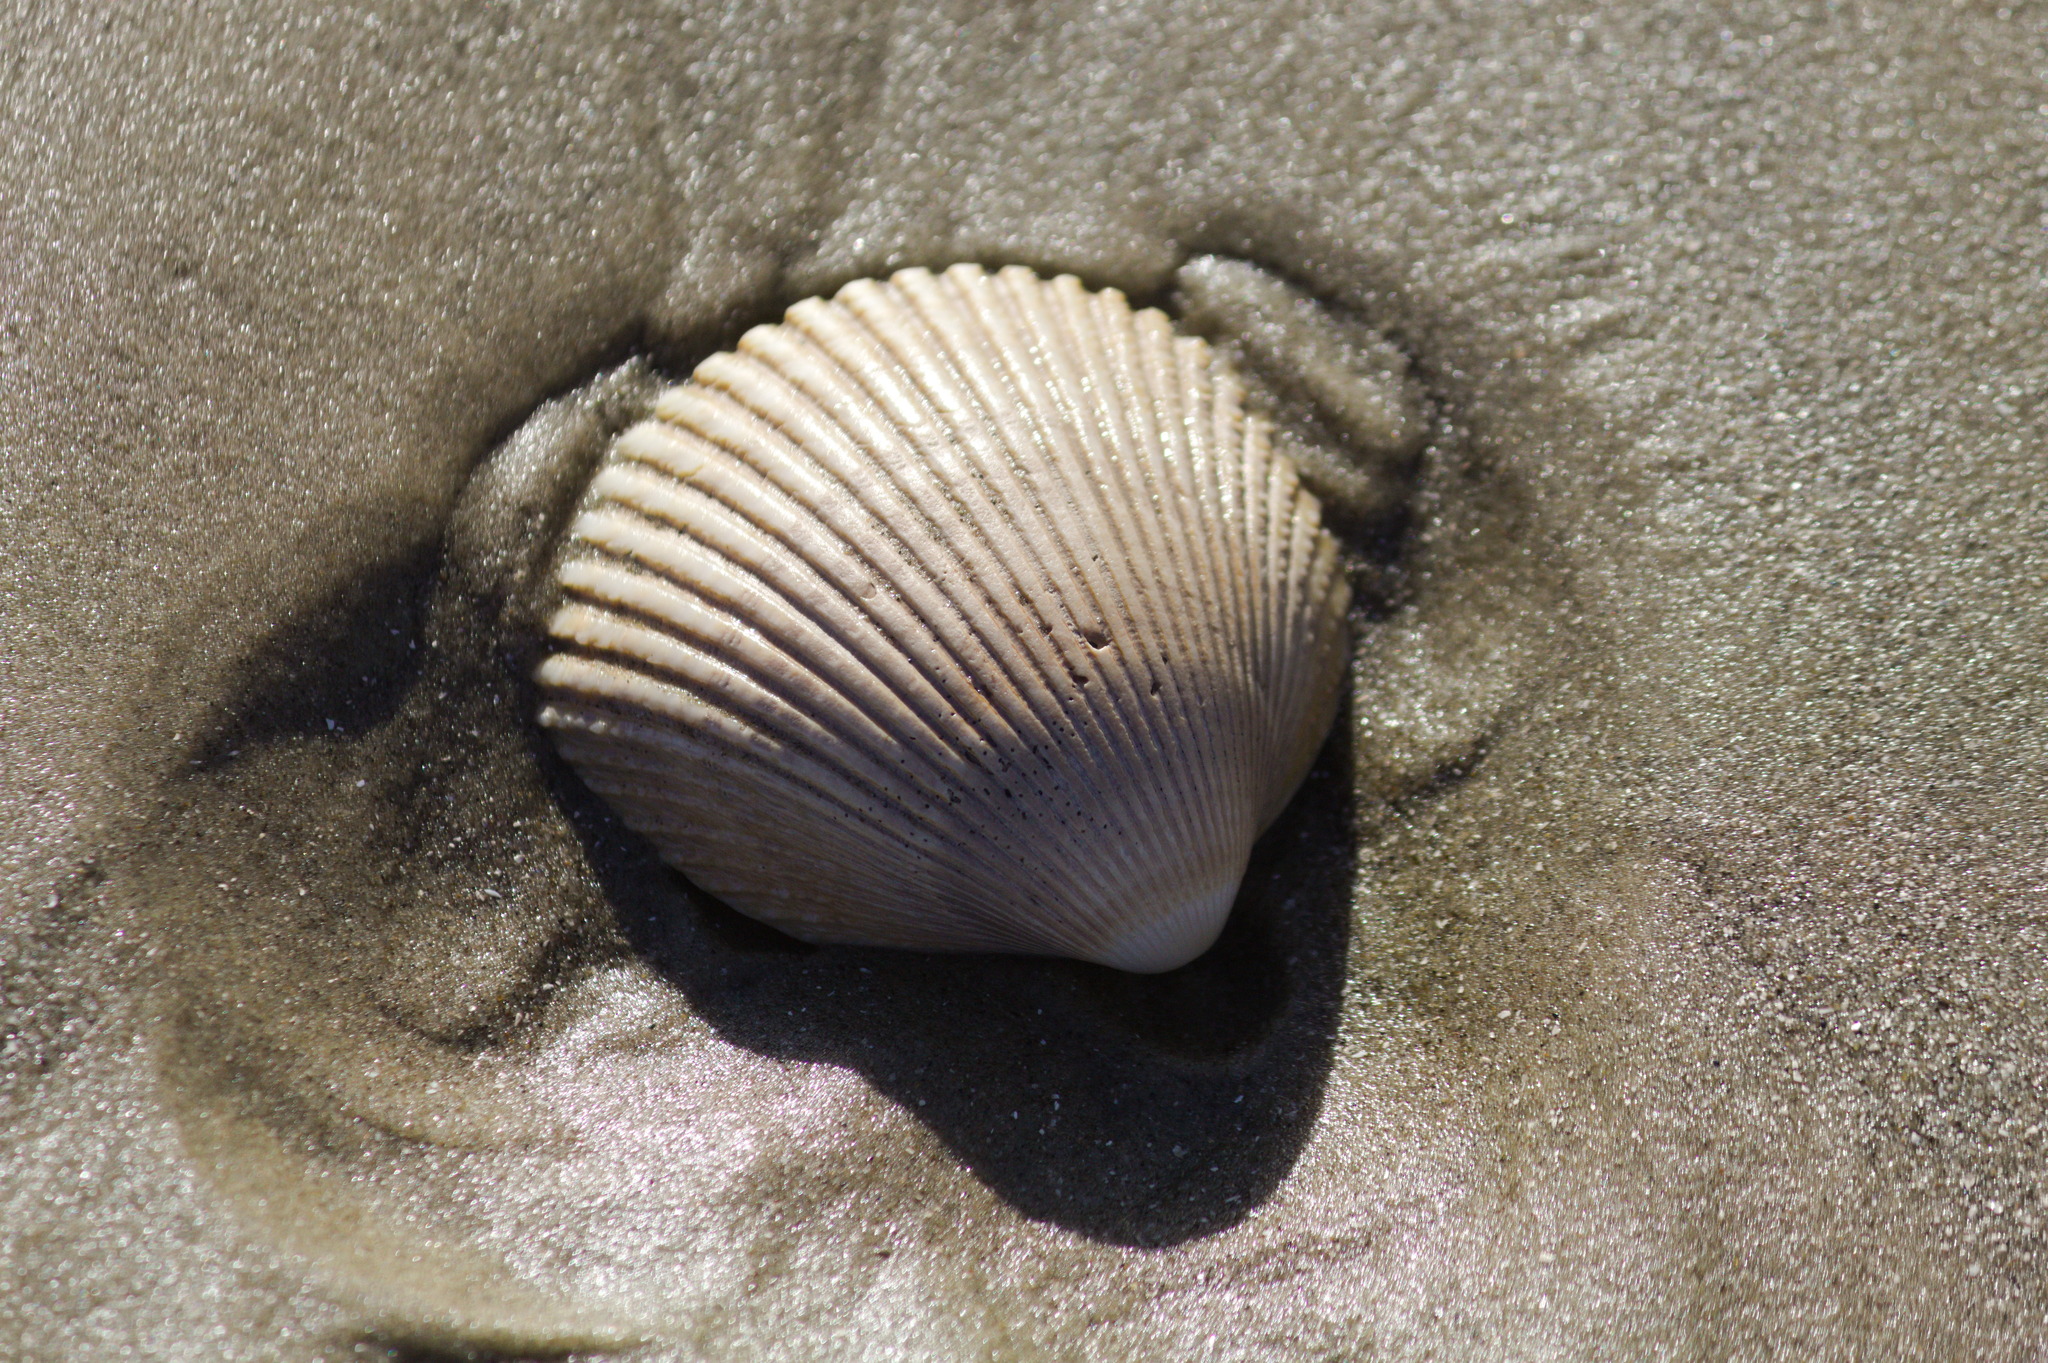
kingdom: Animalia
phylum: Mollusca
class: Bivalvia
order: Cardiida
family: Cardiidae
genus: Dallocardia
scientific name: Dallocardia delicatula
